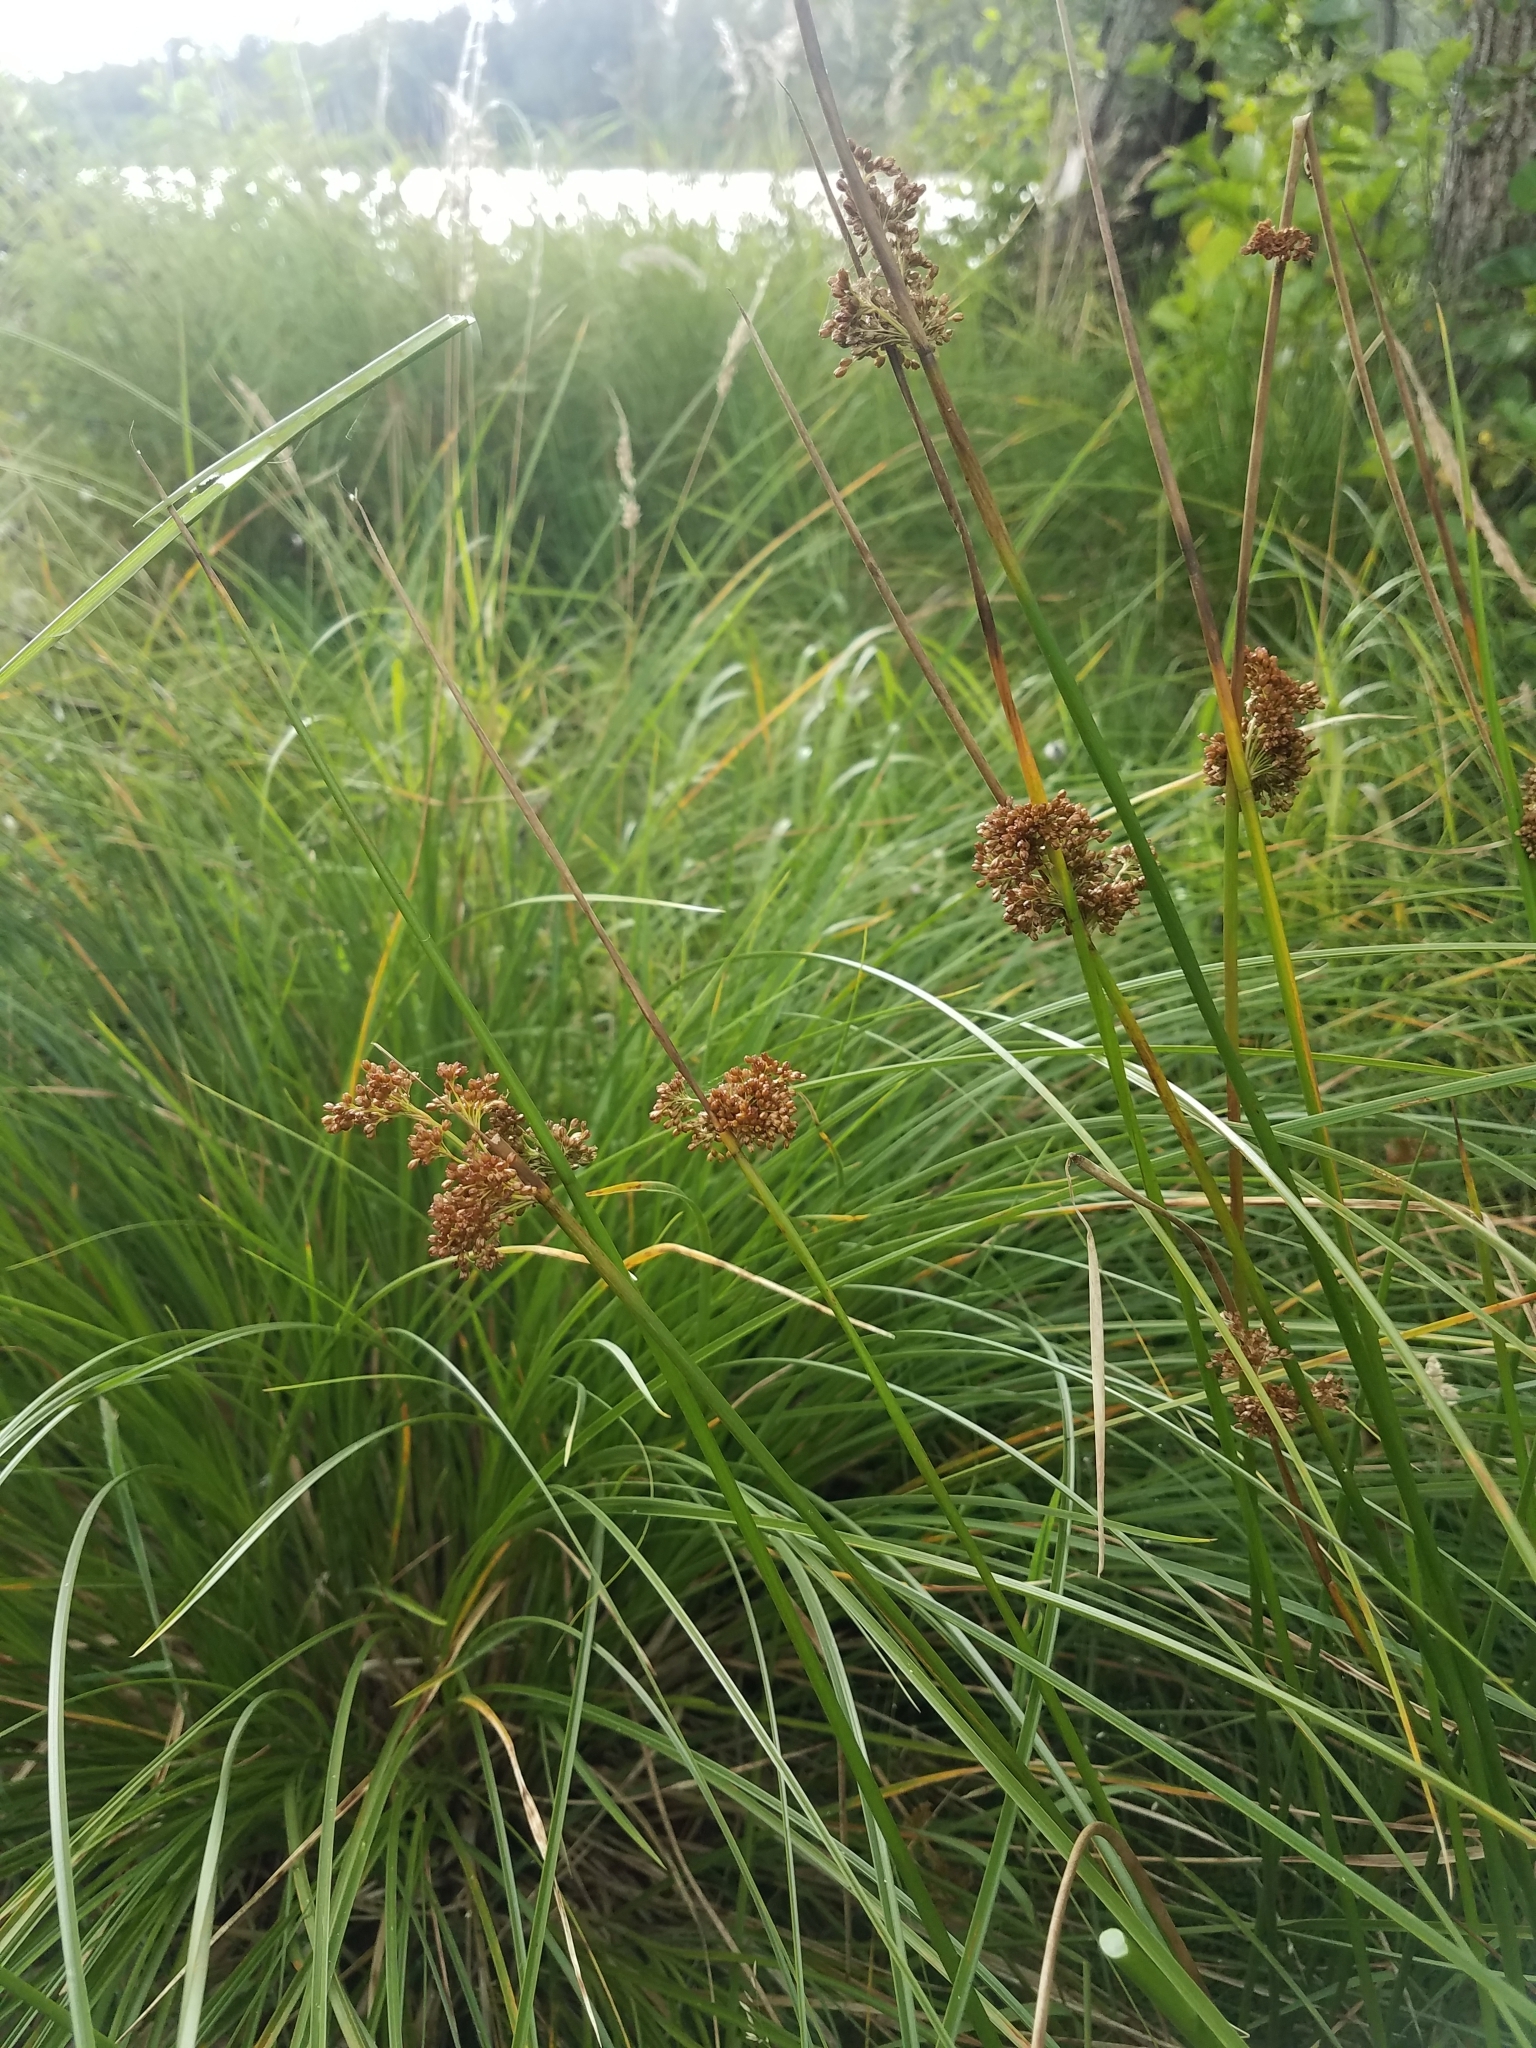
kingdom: Plantae
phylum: Tracheophyta
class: Liliopsida
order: Poales
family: Juncaceae
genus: Juncus
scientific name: Juncus effusus
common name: Soft rush
